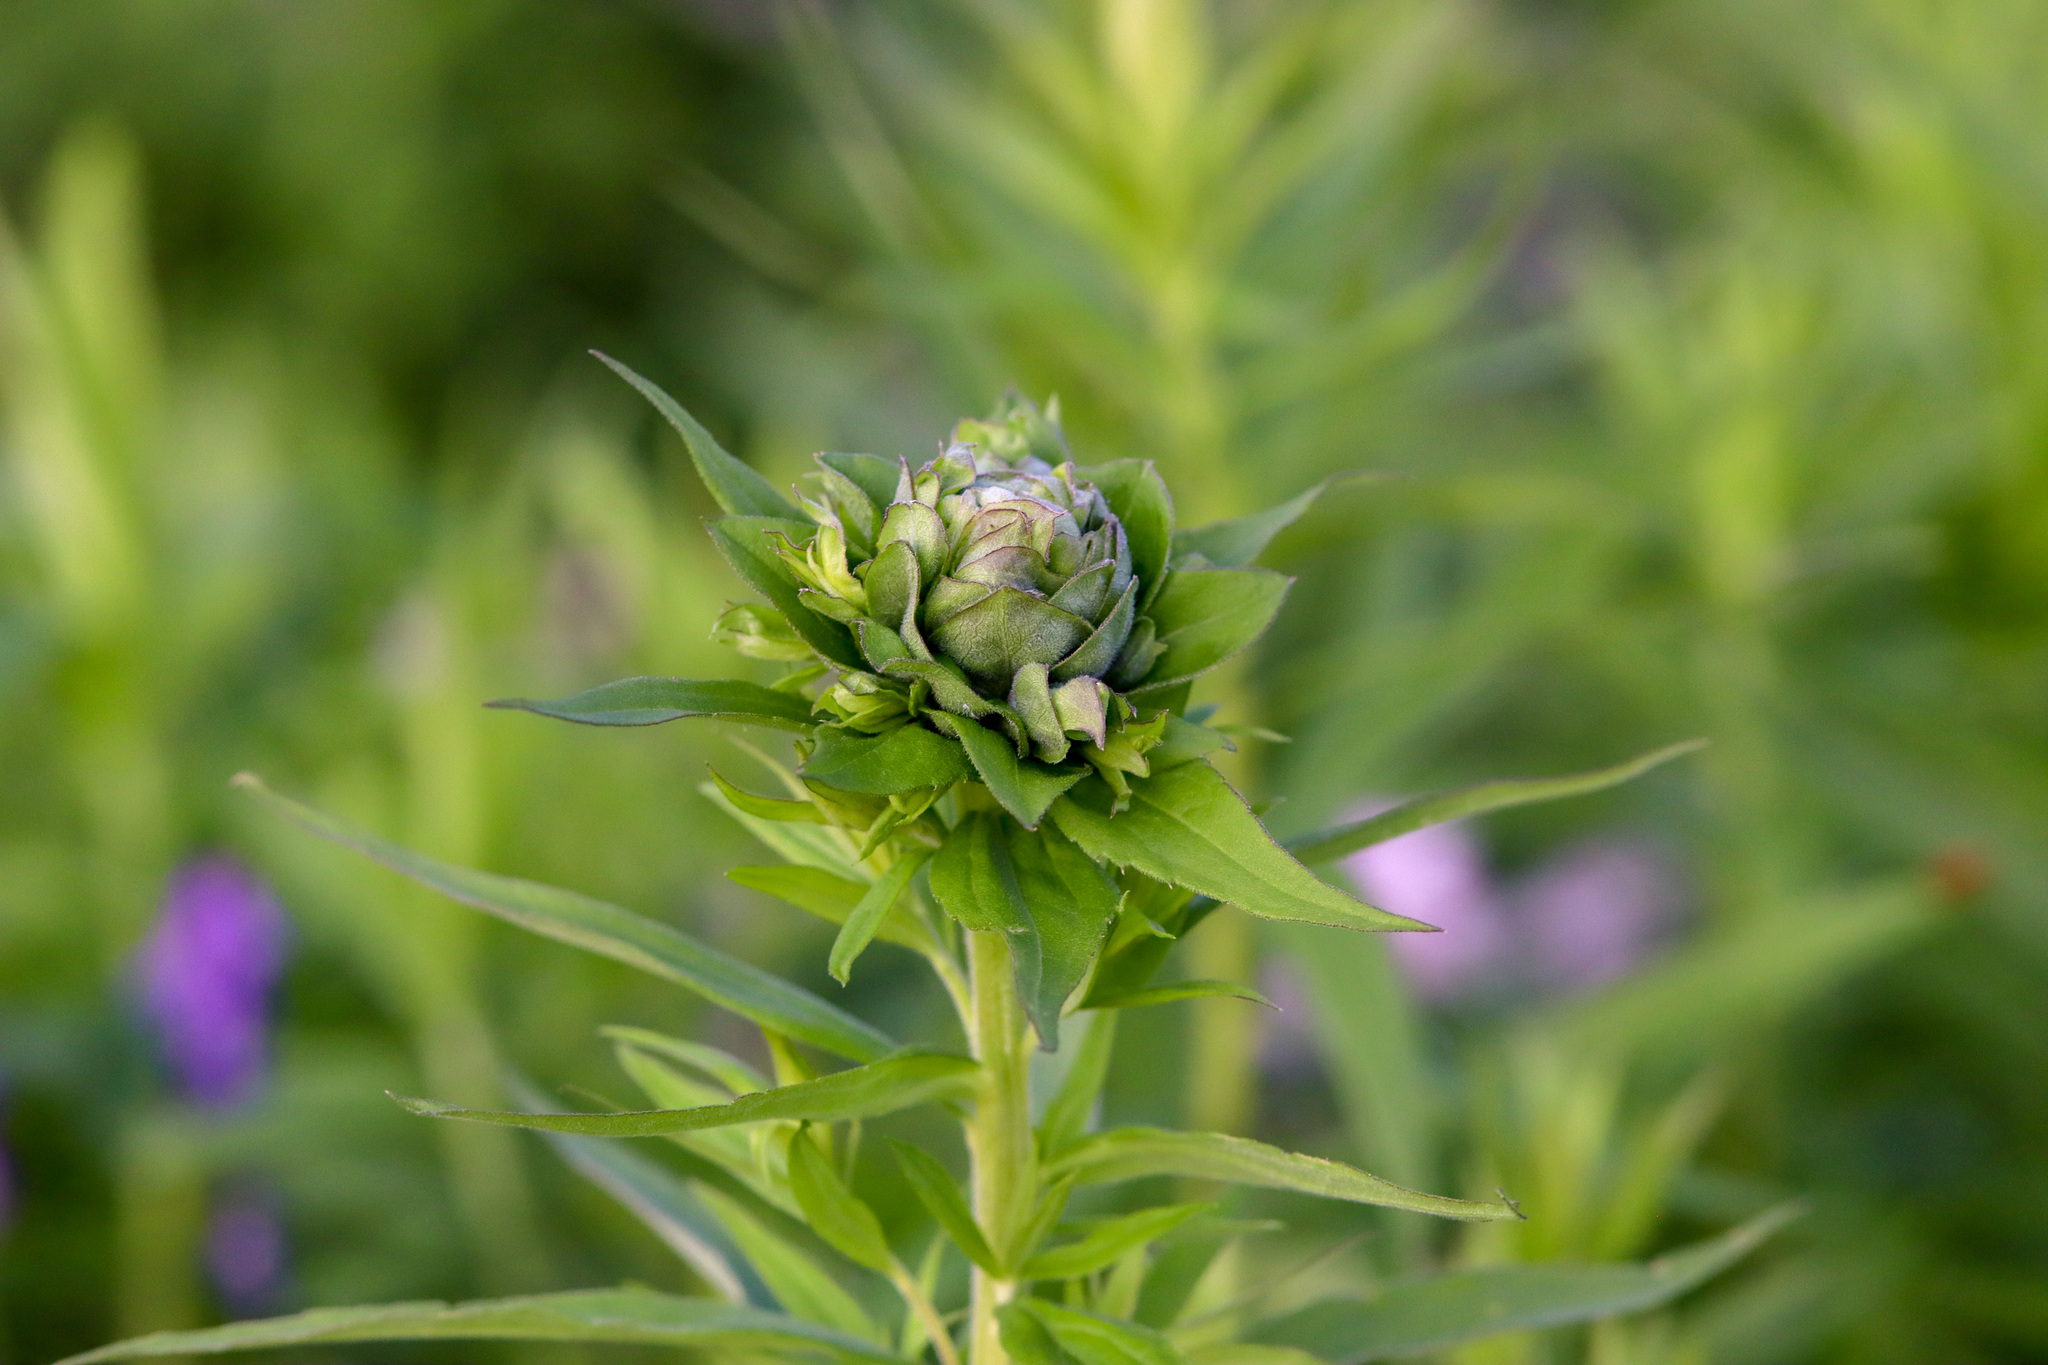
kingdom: Animalia
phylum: Arthropoda
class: Insecta
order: Diptera
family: Cecidomyiidae
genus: Rhopalomyia
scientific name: Rhopalomyia solidaginis
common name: Goldenrod bunch gall midge
